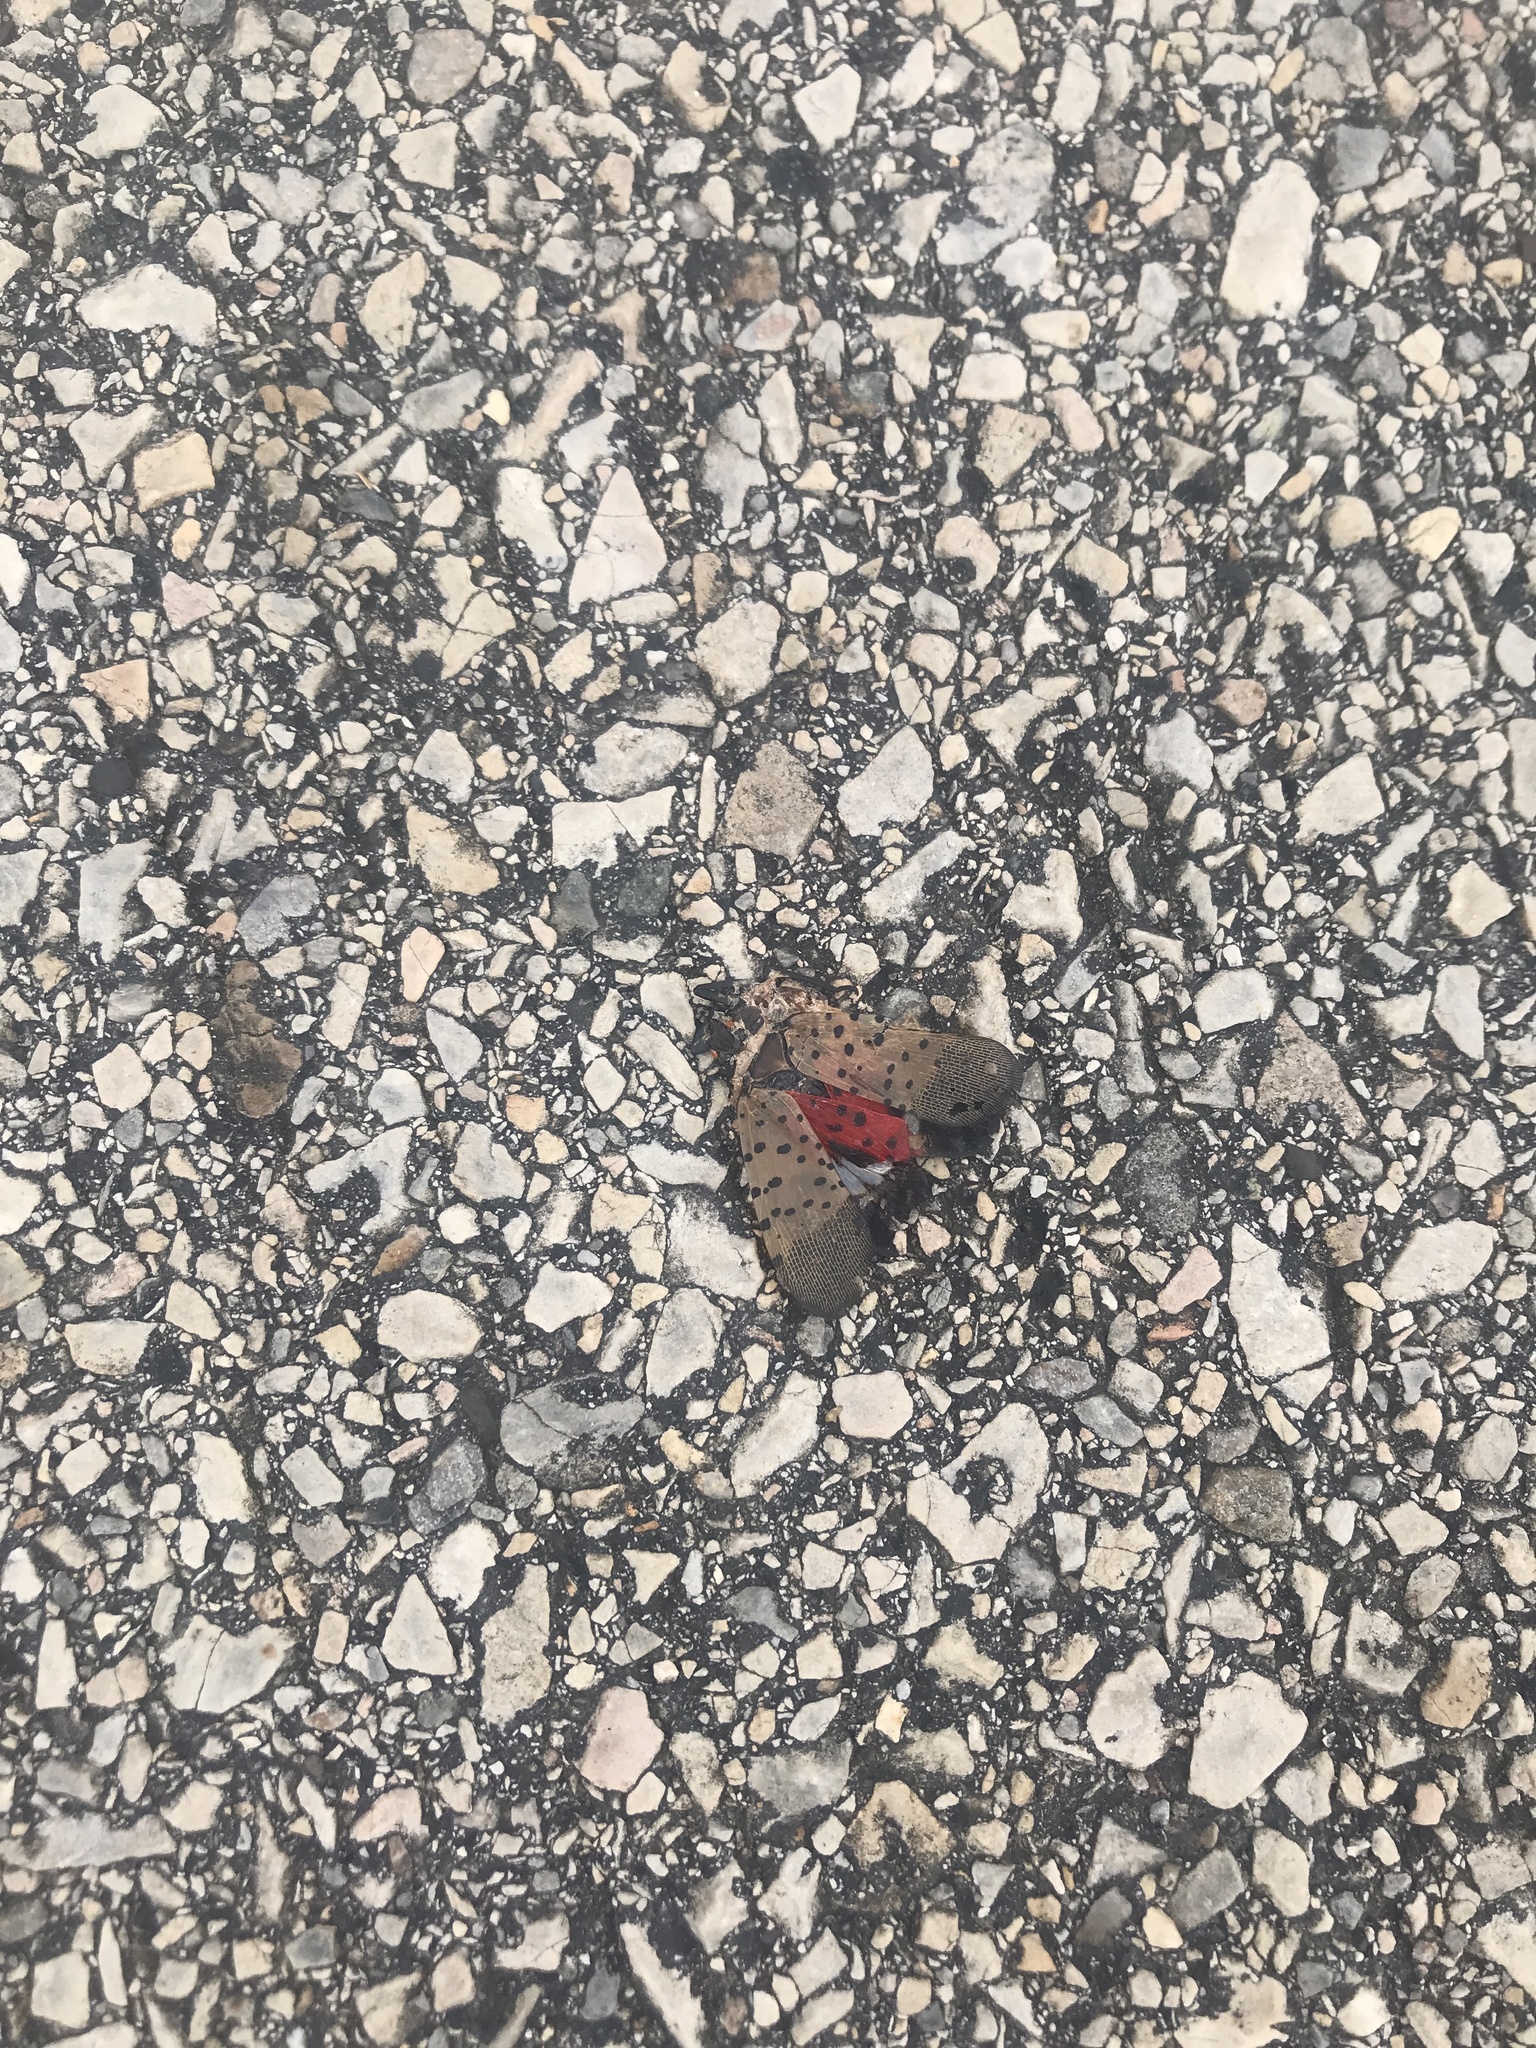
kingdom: Animalia
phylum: Arthropoda
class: Insecta
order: Hemiptera
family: Fulgoridae
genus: Lycorma
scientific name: Lycorma delicatula
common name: Spotted lanternfly
